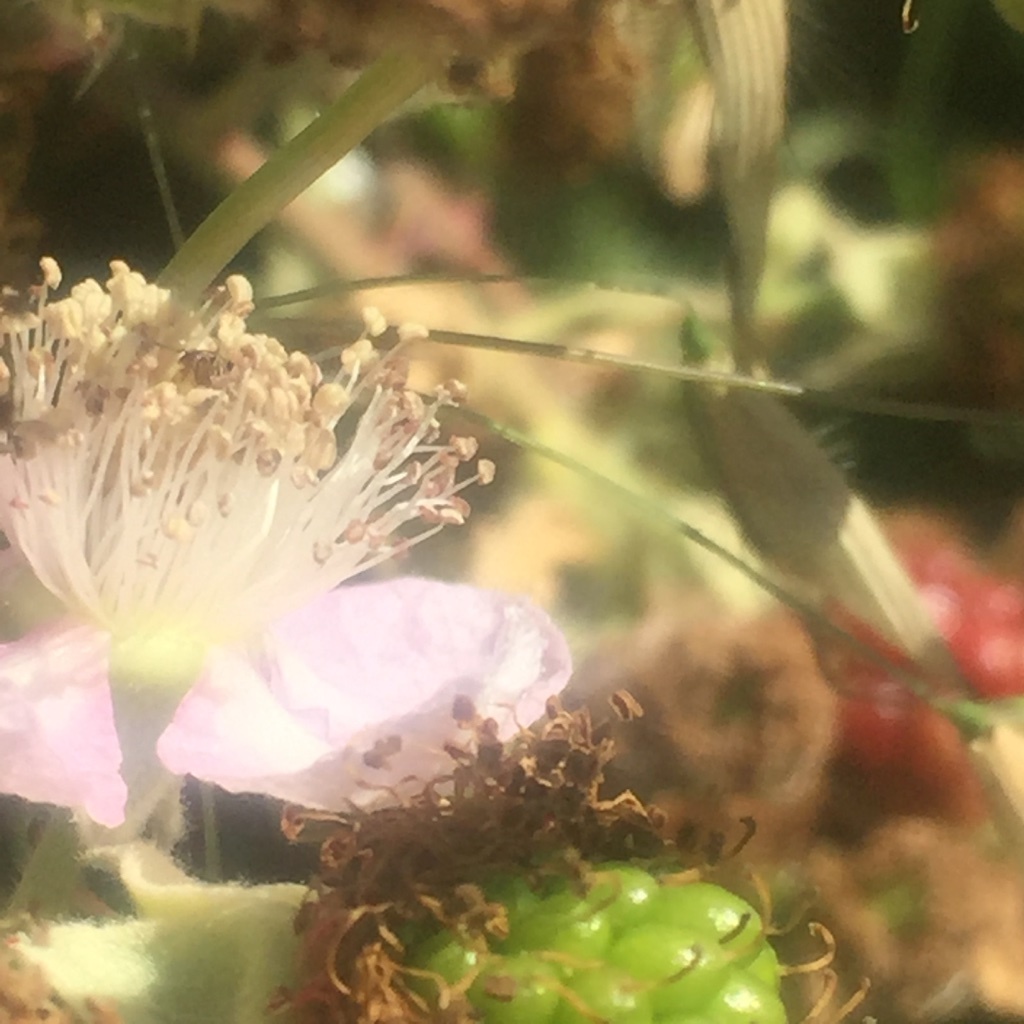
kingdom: Plantae
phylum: Tracheophyta
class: Magnoliopsida
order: Rosales
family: Rosaceae
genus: Rubus
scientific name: Rubus armeniacus
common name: Himalayan blackberry
